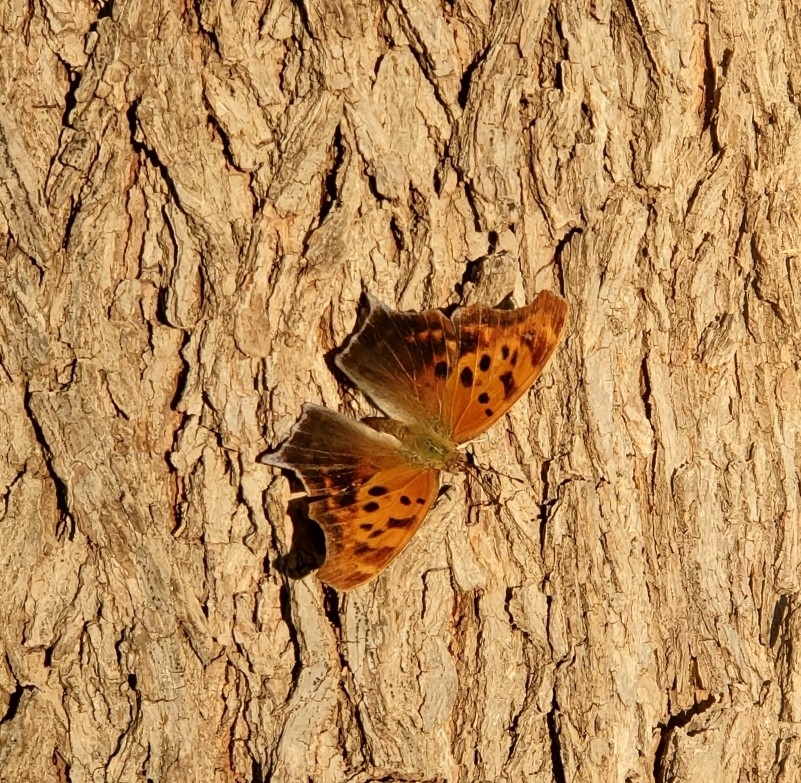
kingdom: Animalia
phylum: Arthropoda
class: Insecta
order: Lepidoptera
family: Nymphalidae
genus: Polygonia
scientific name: Polygonia interrogationis
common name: Question mark
